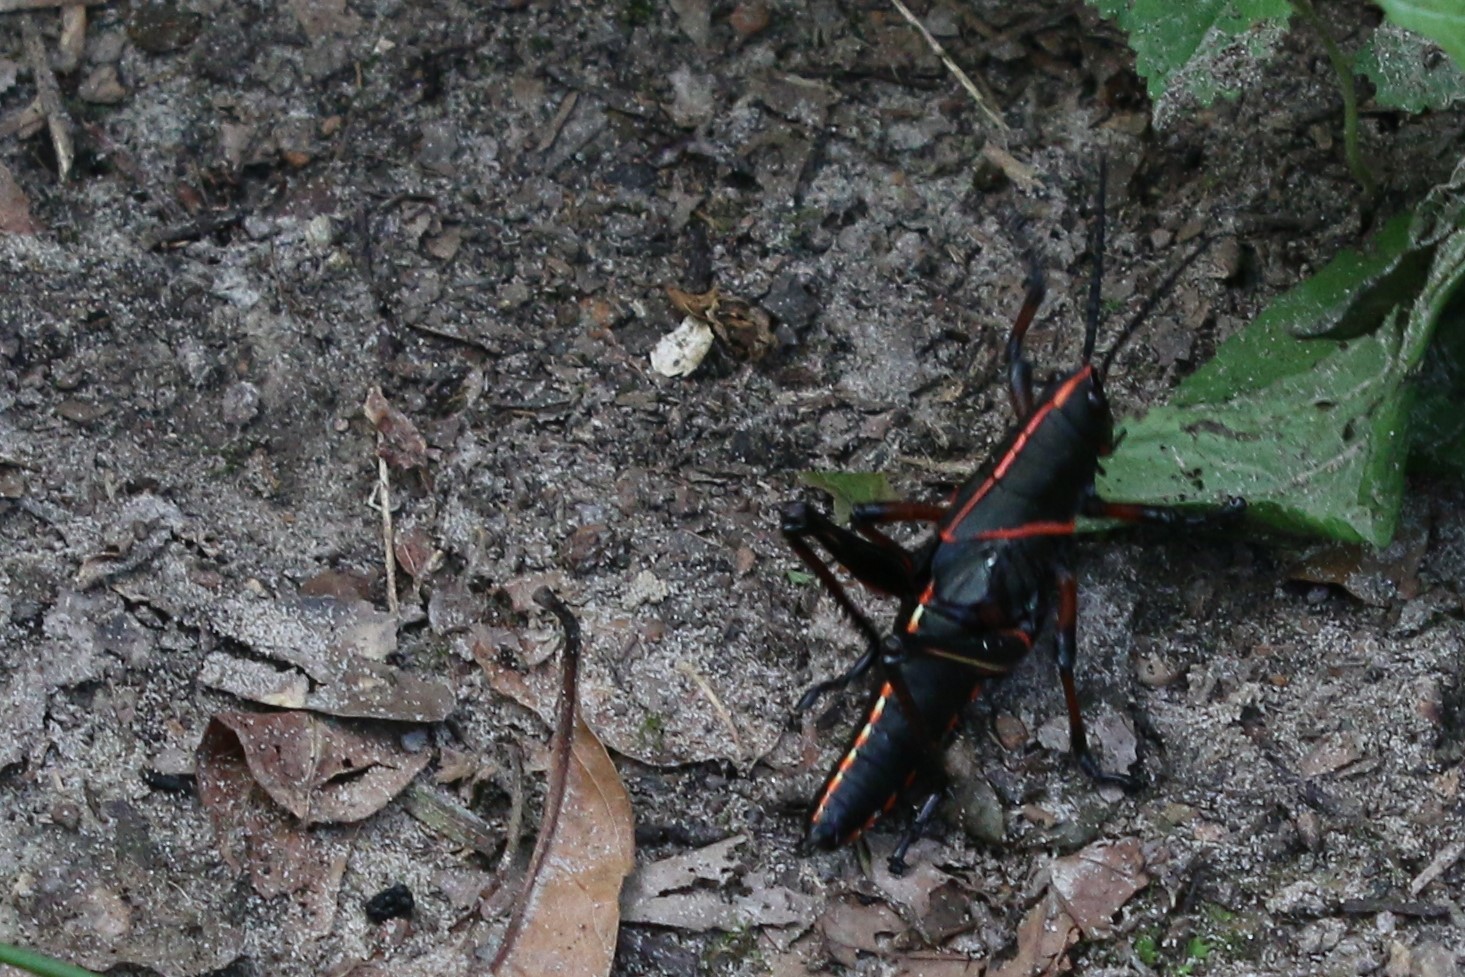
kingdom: Animalia
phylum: Arthropoda
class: Insecta
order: Orthoptera
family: Romaleidae
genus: Romalea
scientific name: Romalea microptera
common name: Eastern lubber grasshopper
